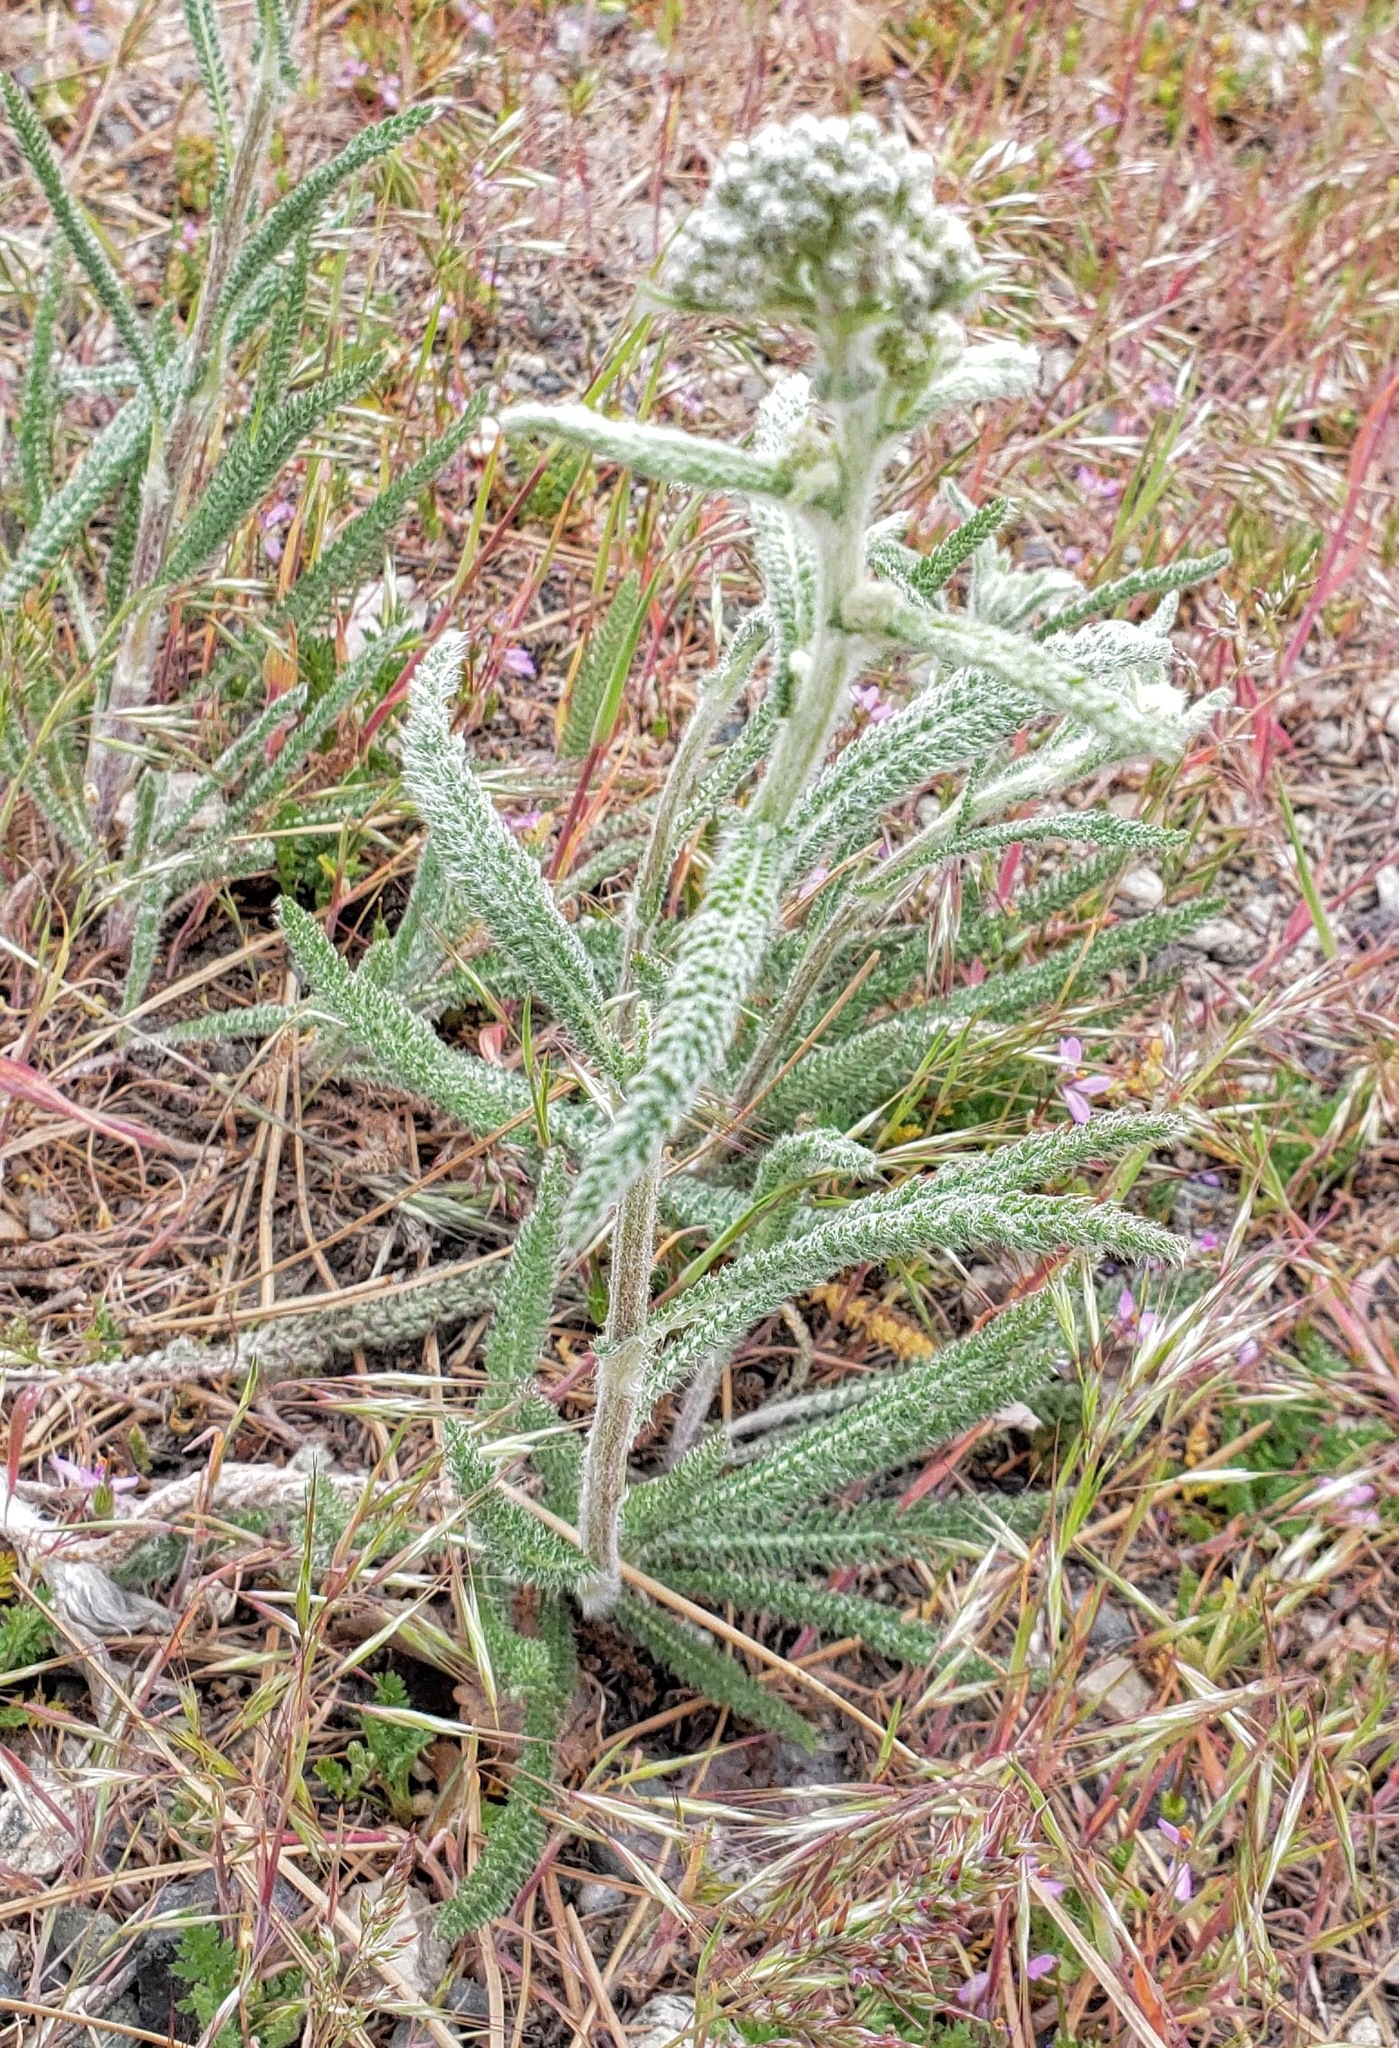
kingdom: Plantae
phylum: Tracheophyta
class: Magnoliopsida
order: Asterales
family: Asteraceae
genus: Achillea
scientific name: Achillea millefolium
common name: Yarrow
